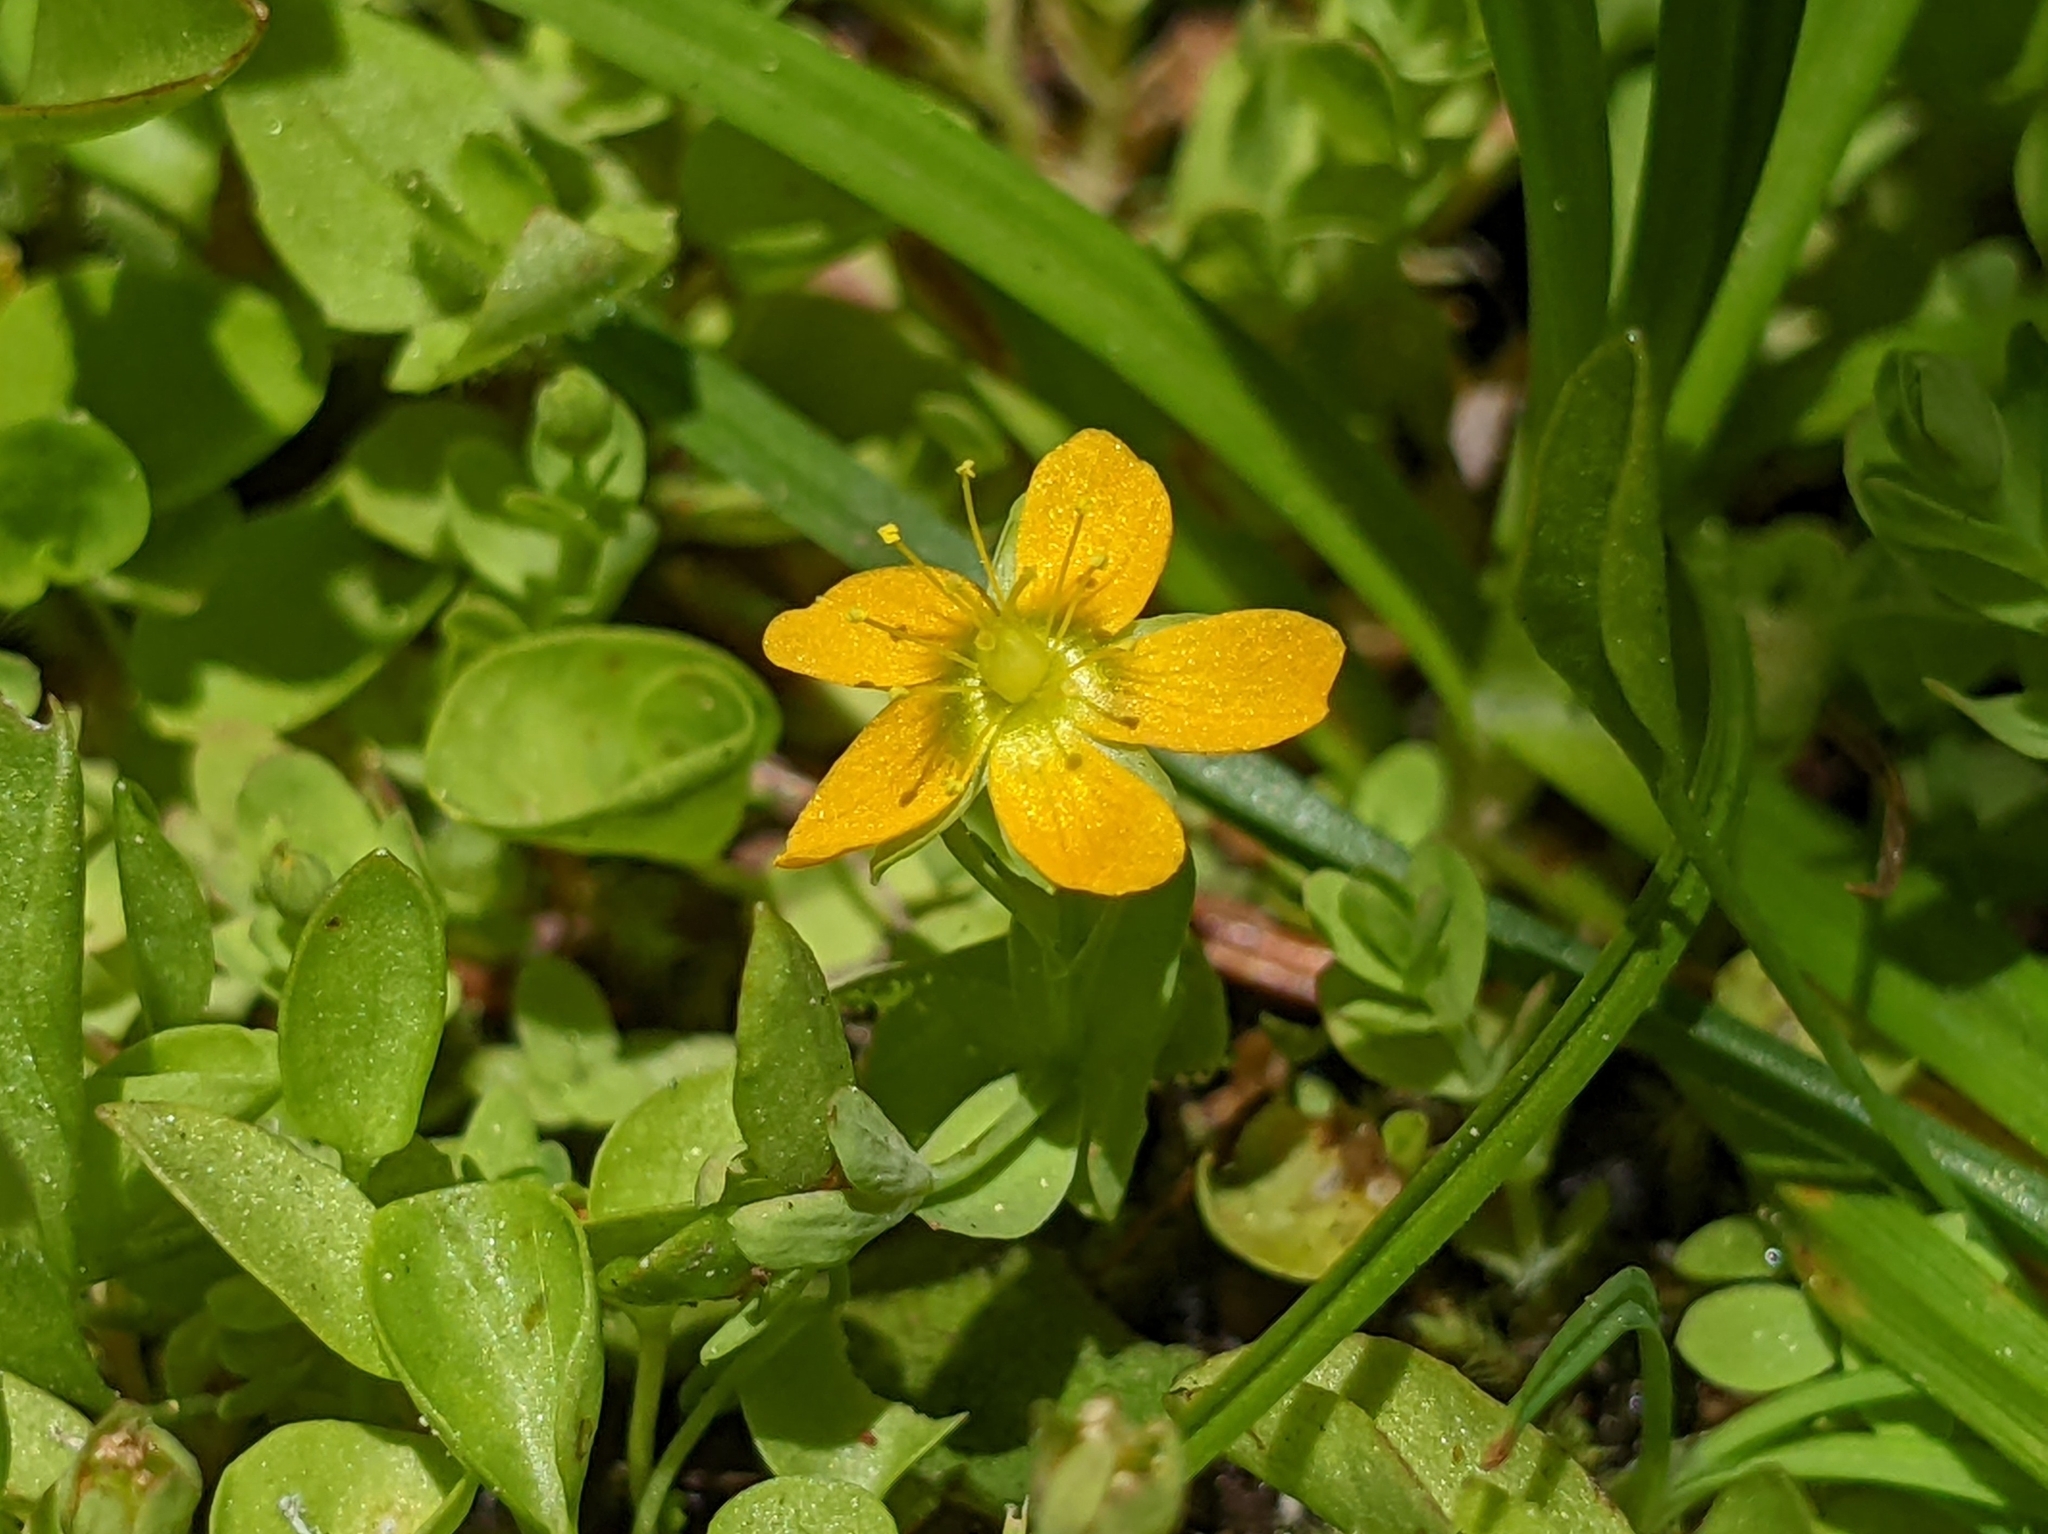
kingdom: Plantae
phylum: Tracheophyta
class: Magnoliopsida
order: Malpighiales
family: Hypericaceae
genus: Hypericum
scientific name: Hypericum anagalloides
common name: Bog st. john's-wort
